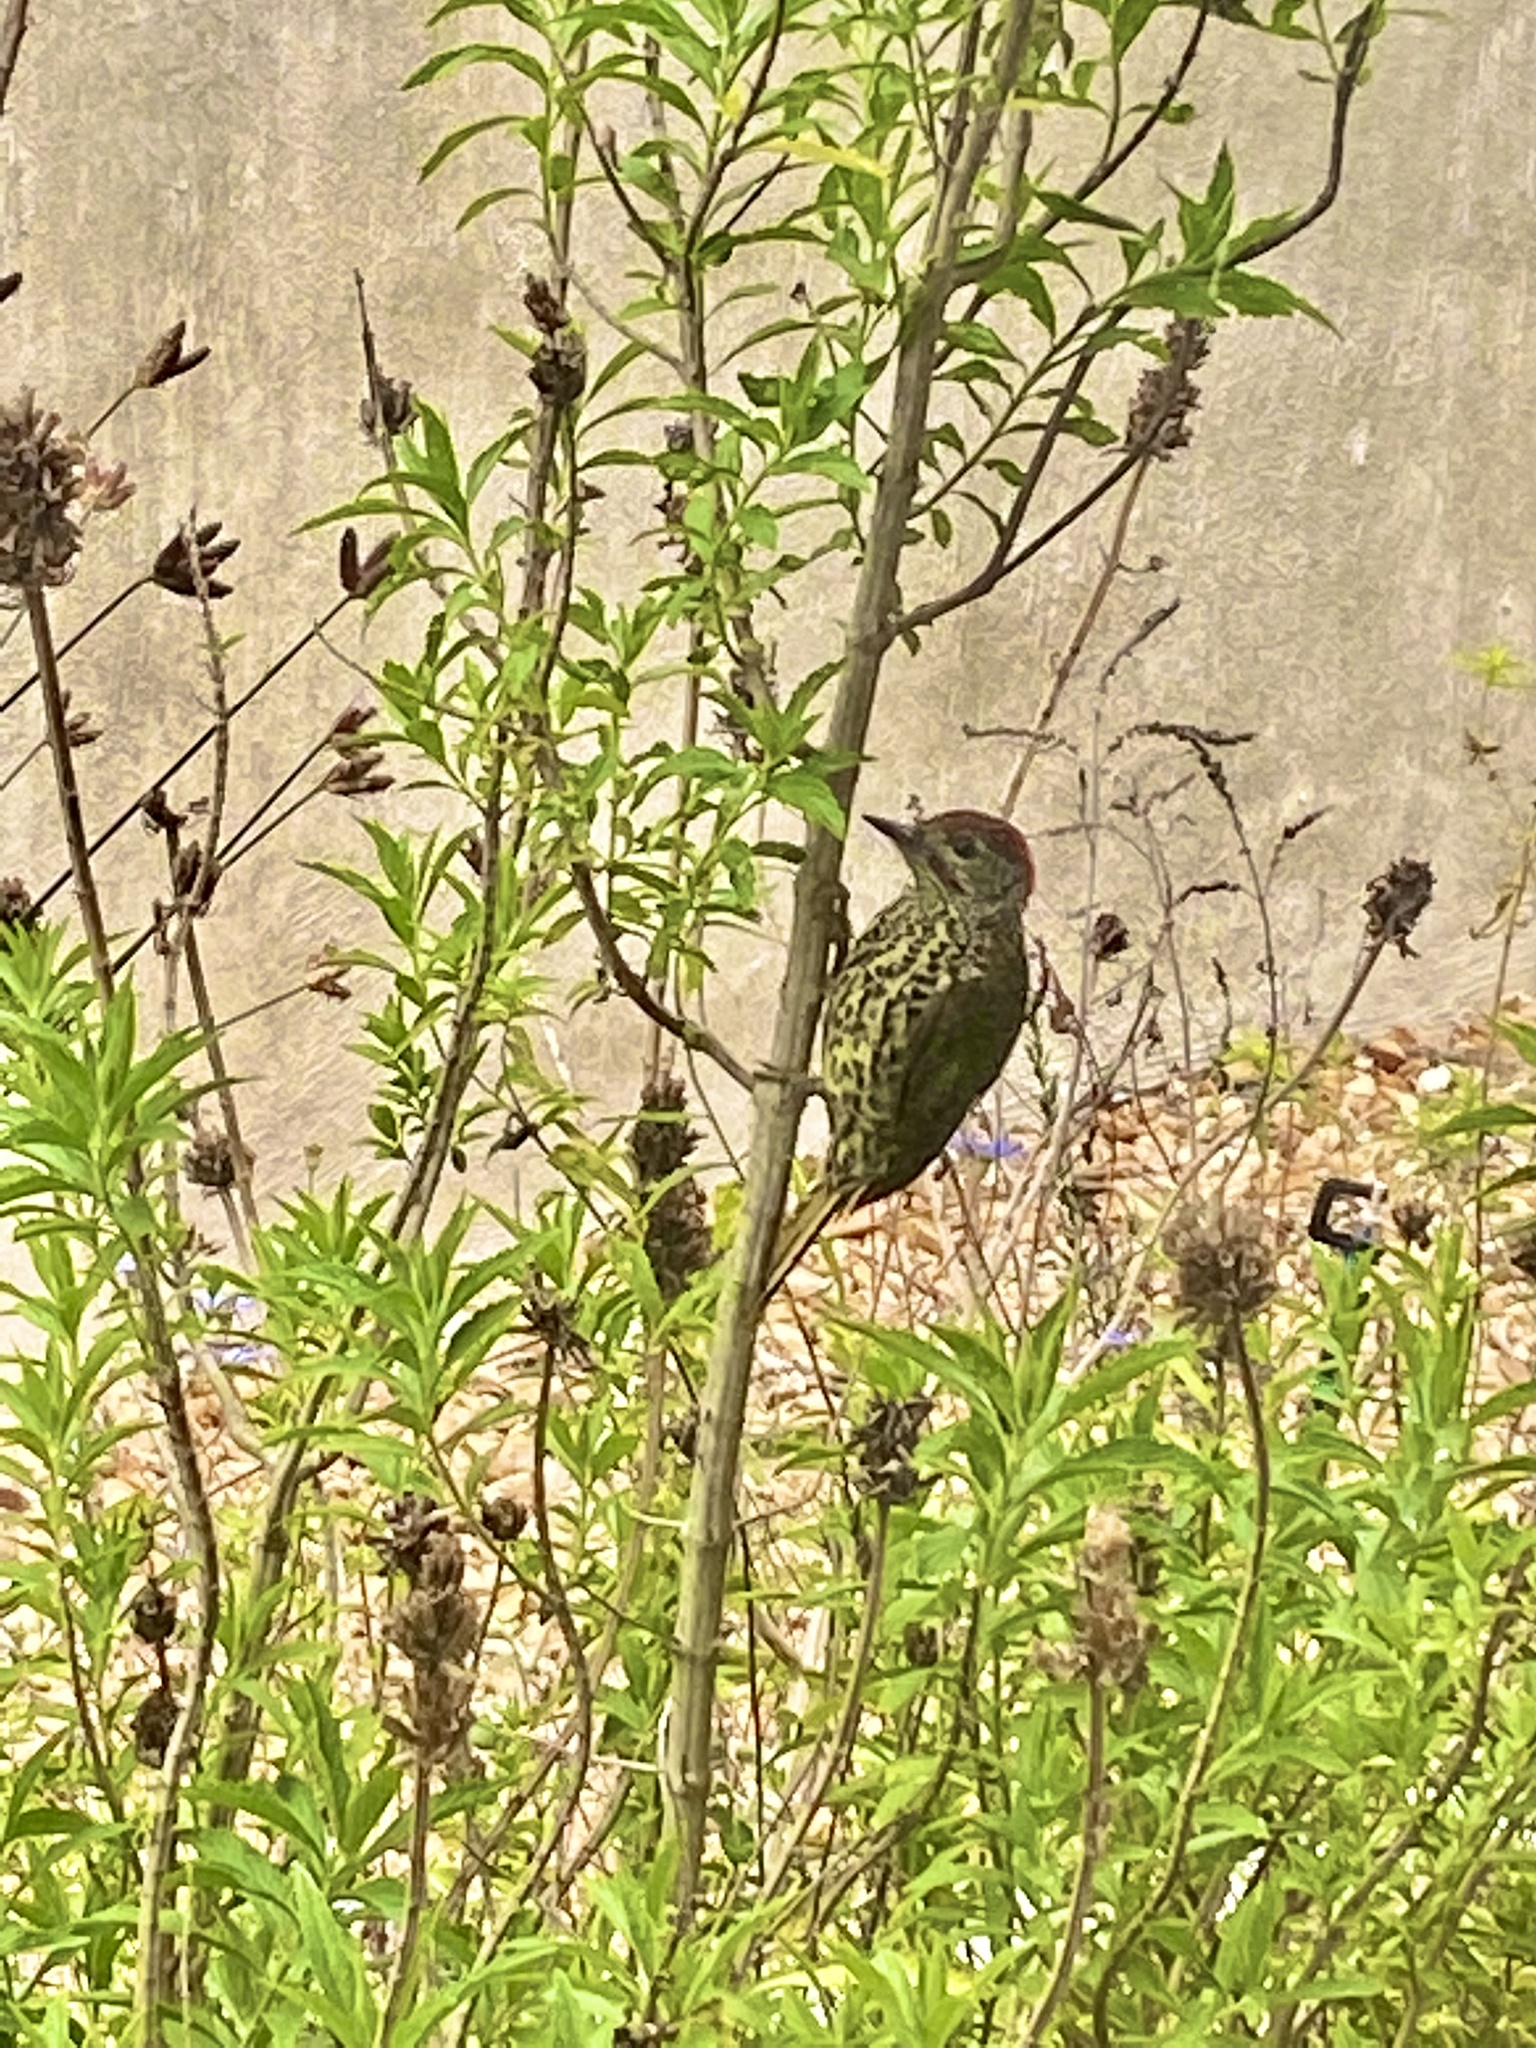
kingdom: Animalia
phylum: Chordata
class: Aves
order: Piciformes
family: Picidae
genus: Campethera
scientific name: Campethera notata
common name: Knysna woodpecker
